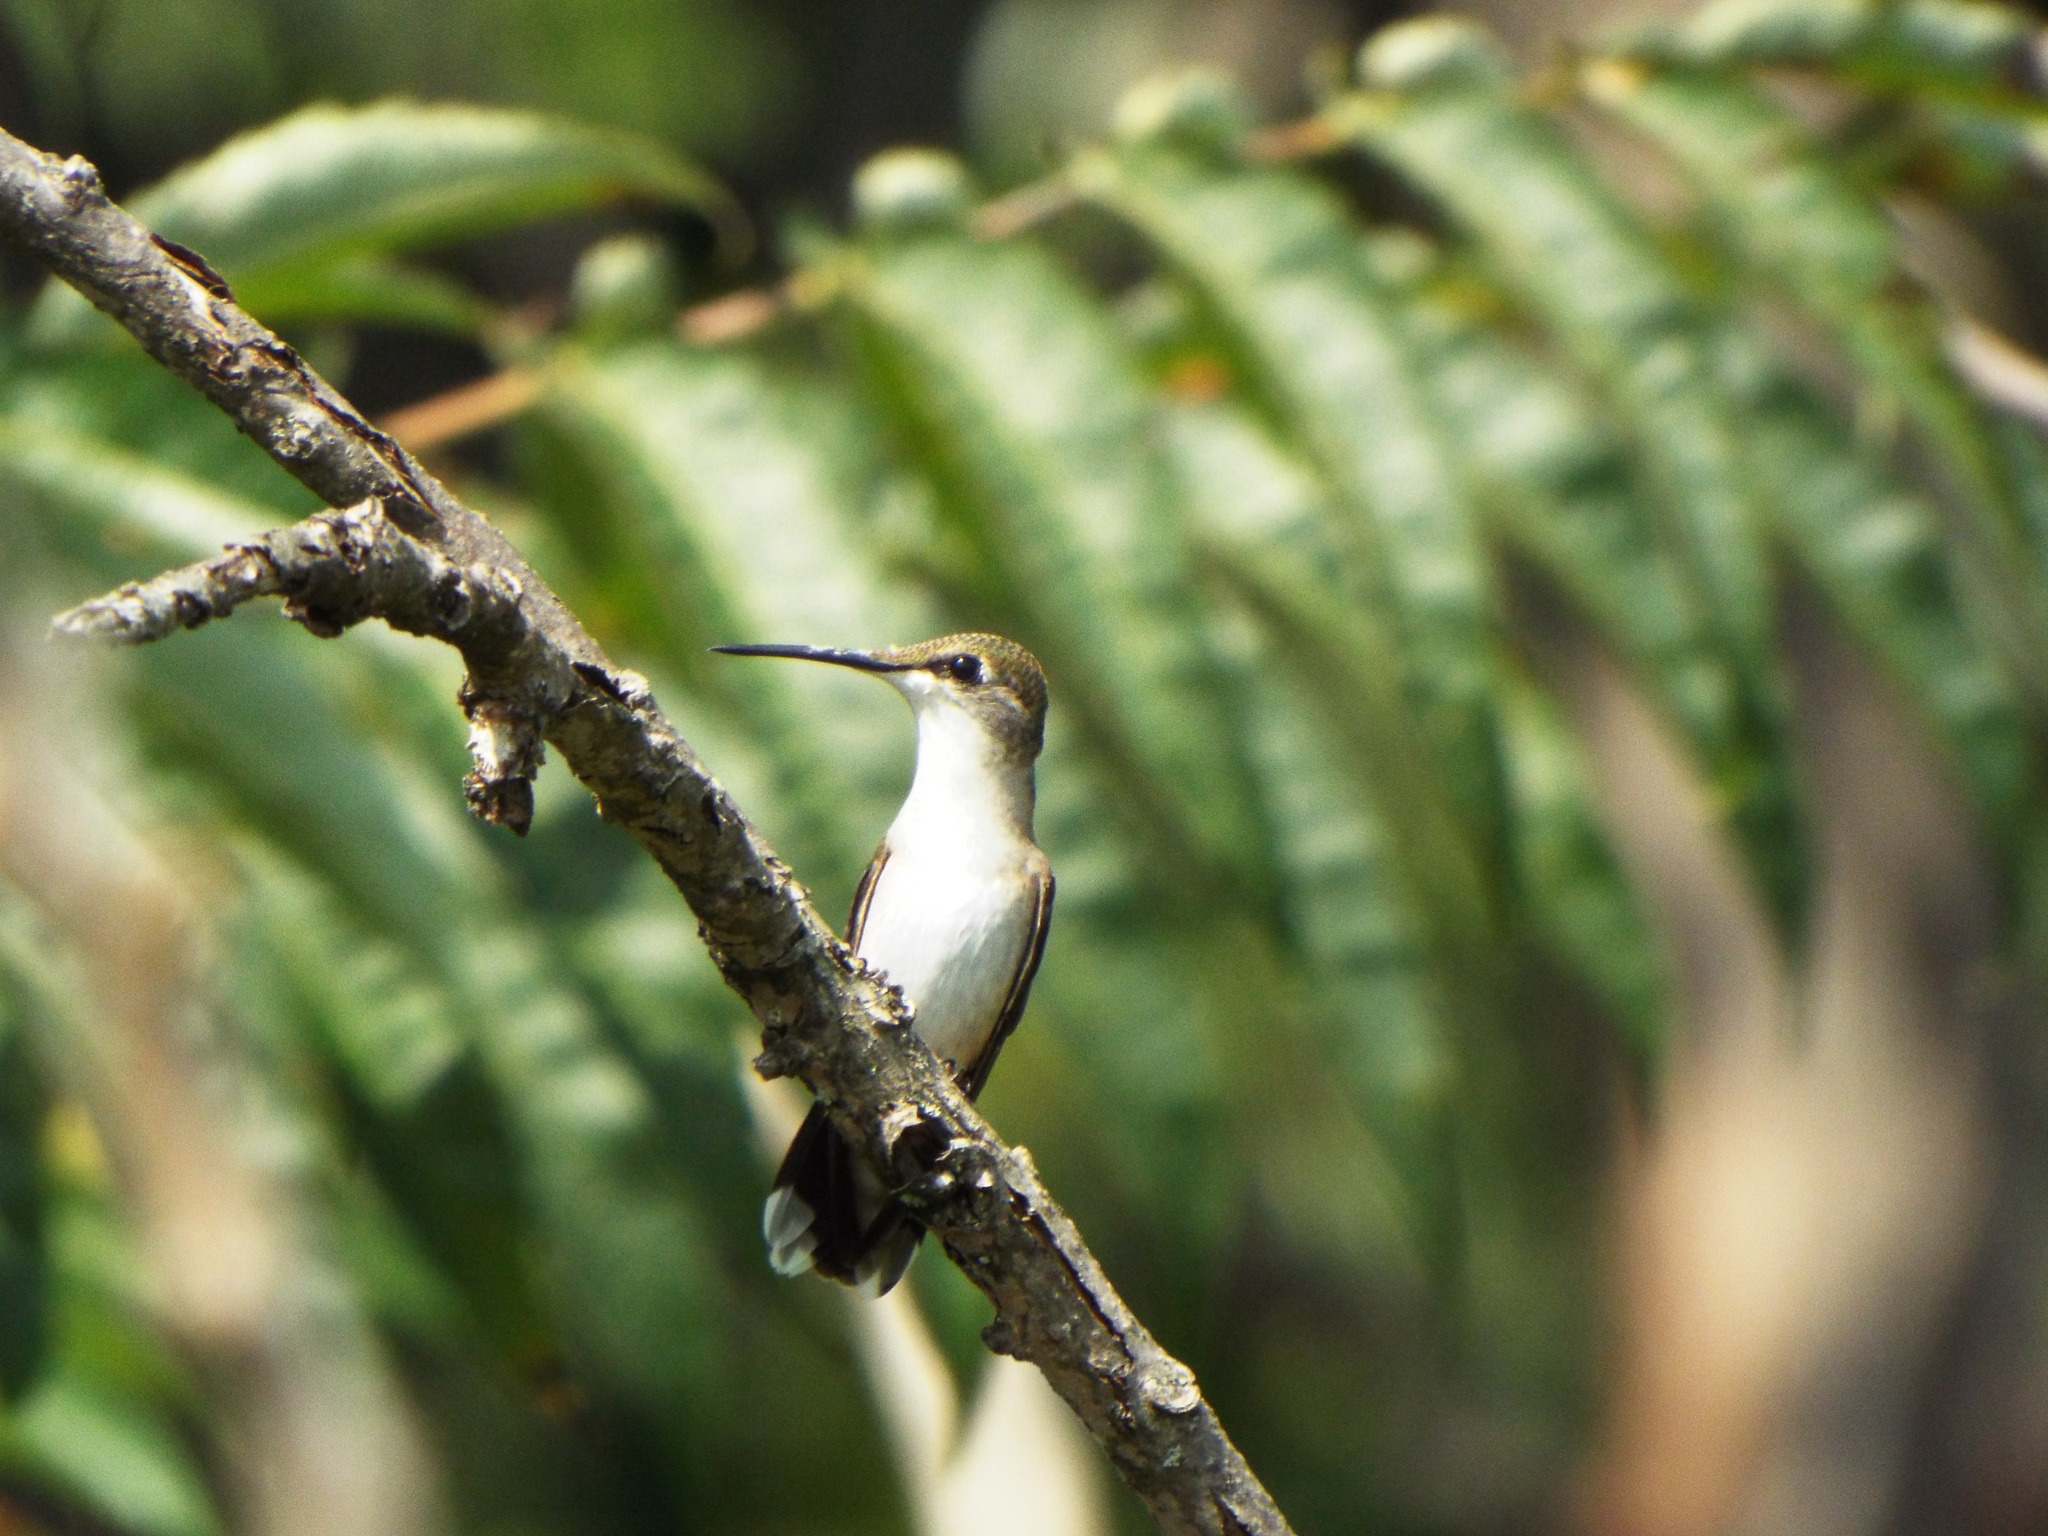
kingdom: Animalia
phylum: Chordata
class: Aves
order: Apodiformes
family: Trochilidae
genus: Archilochus
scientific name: Archilochus colubris
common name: Ruby-throated hummingbird
